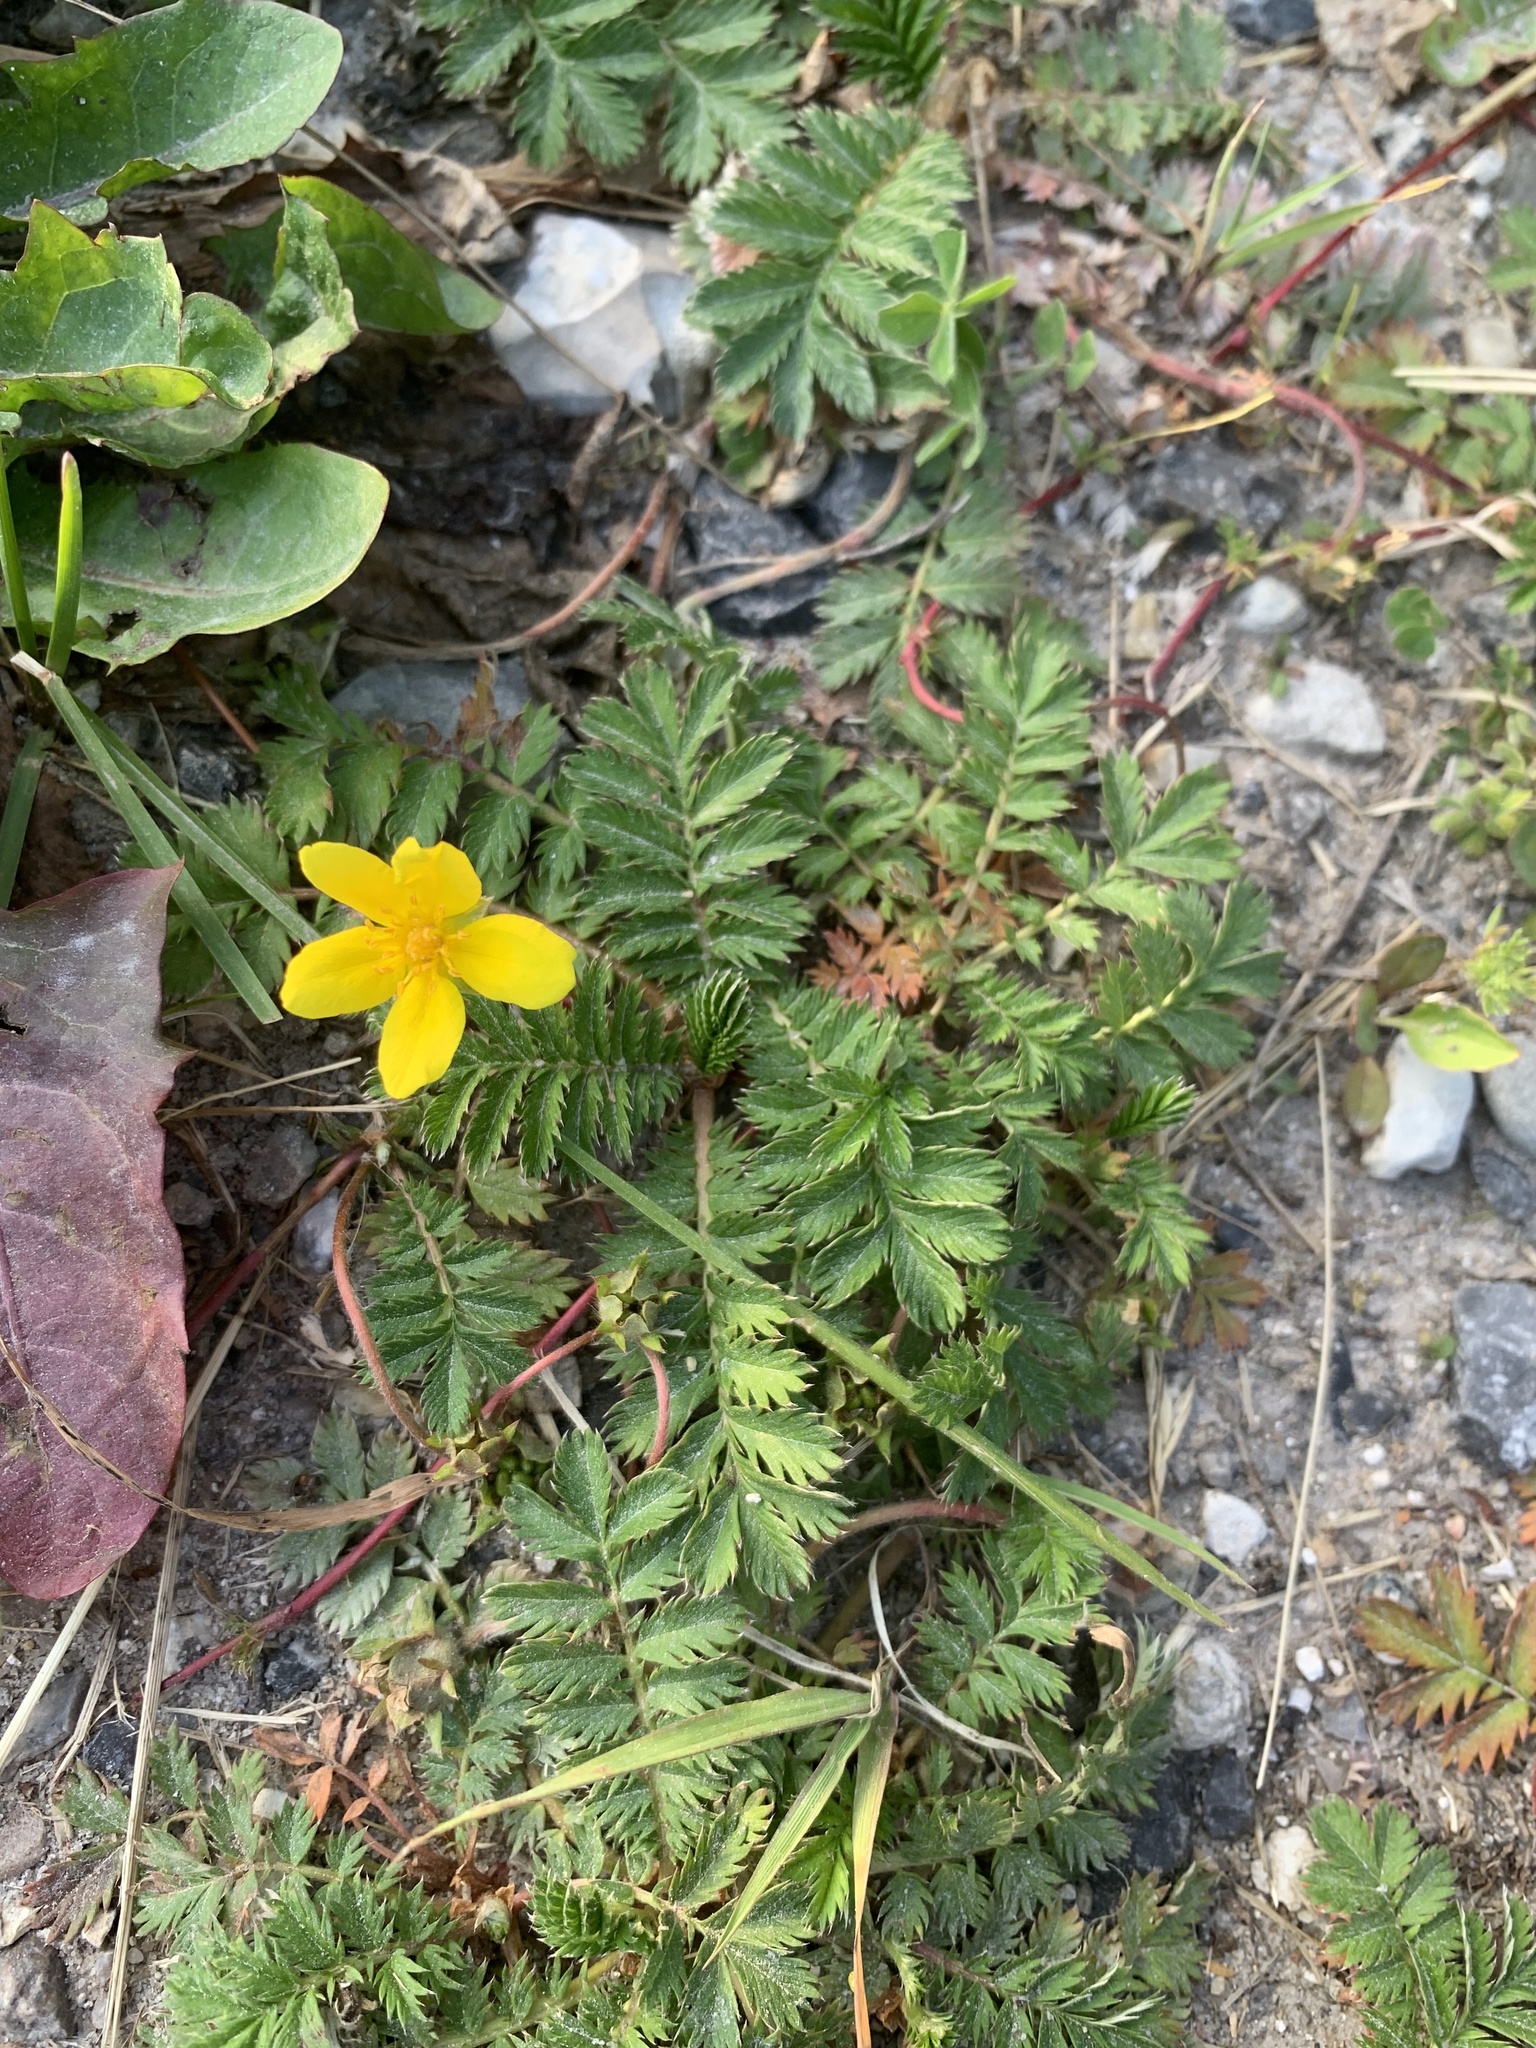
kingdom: Plantae
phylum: Tracheophyta
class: Magnoliopsida
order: Rosales
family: Rosaceae
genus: Argentina
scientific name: Argentina anserina
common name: Common silverweed
